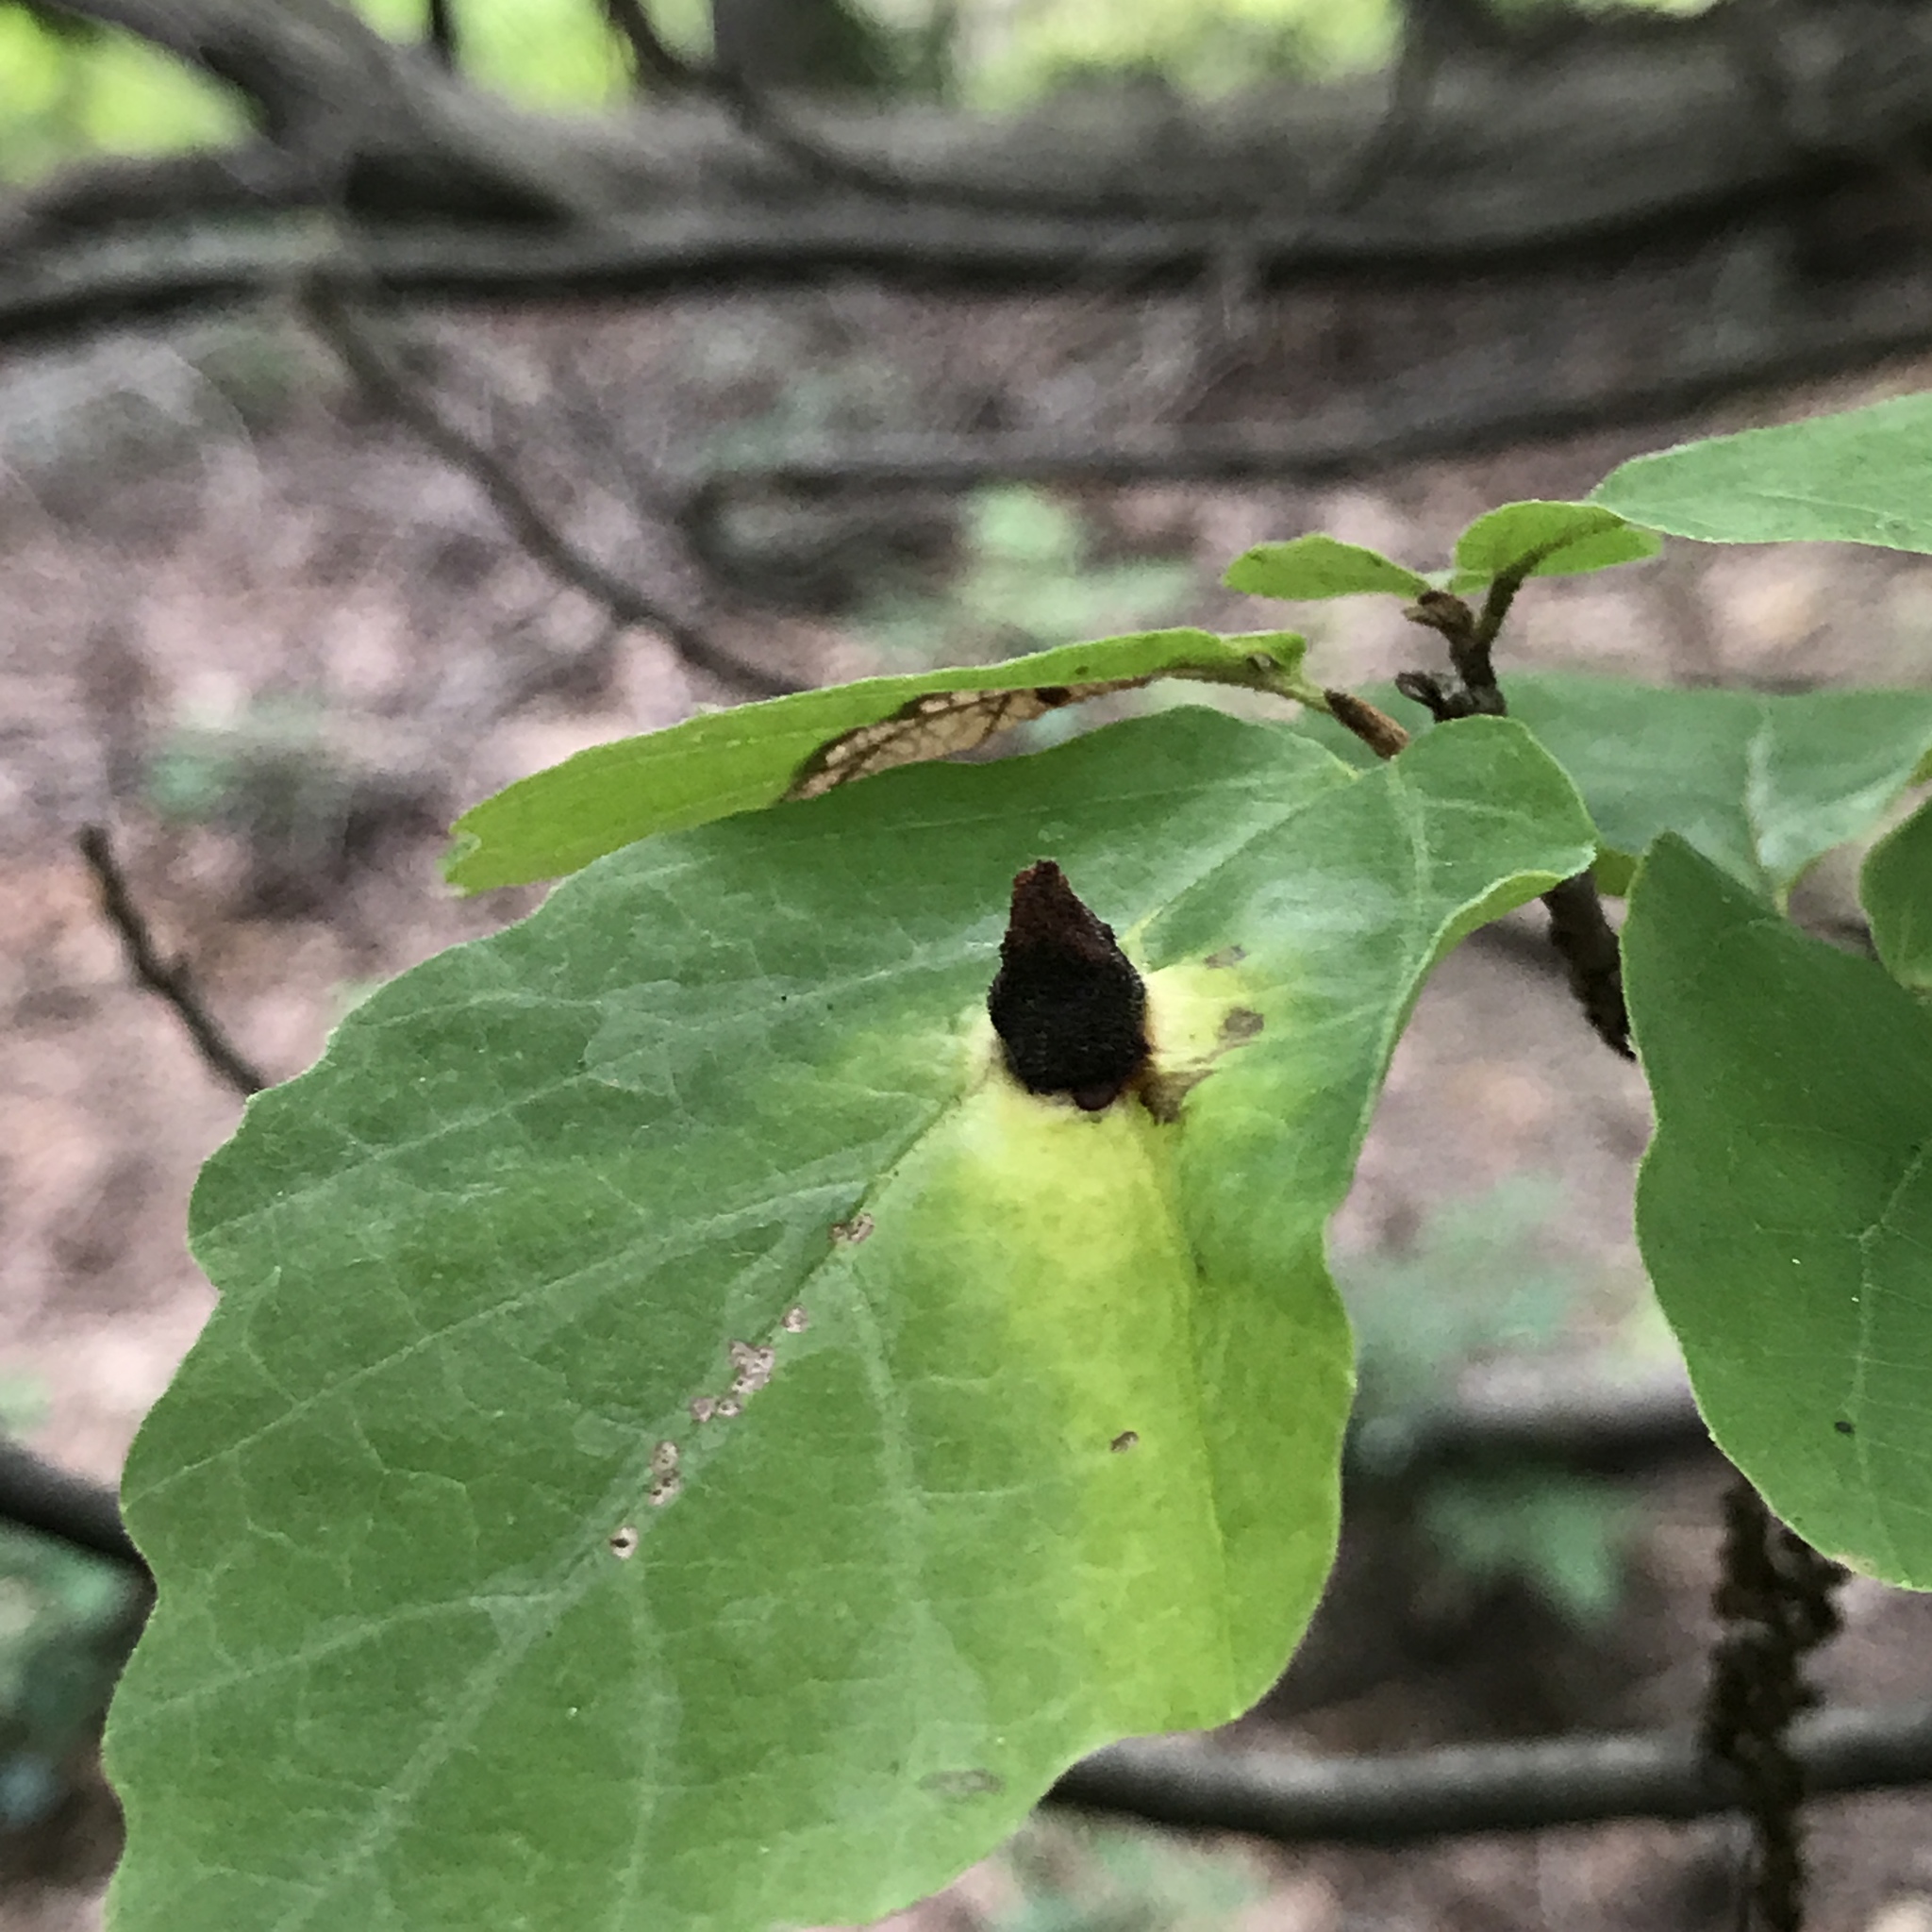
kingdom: Animalia
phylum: Arthropoda
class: Insecta
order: Hemiptera
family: Aphididae
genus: Hormaphis
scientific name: Hormaphis hamamelidis
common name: Witch-hazel cone gall aphid
